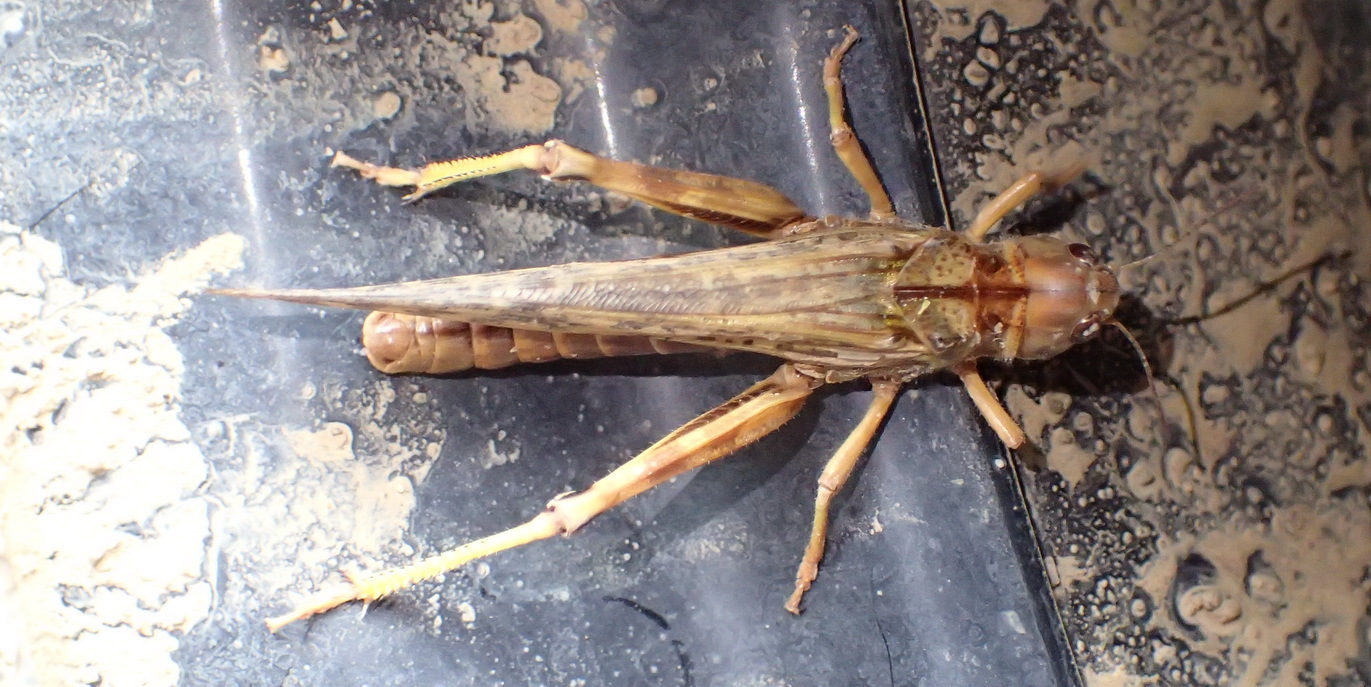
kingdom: Animalia
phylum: Arthropoda
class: Insecta
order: Orthoptera
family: Acrididae
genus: Locustana
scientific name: Locustana pardalina
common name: Brown locust
